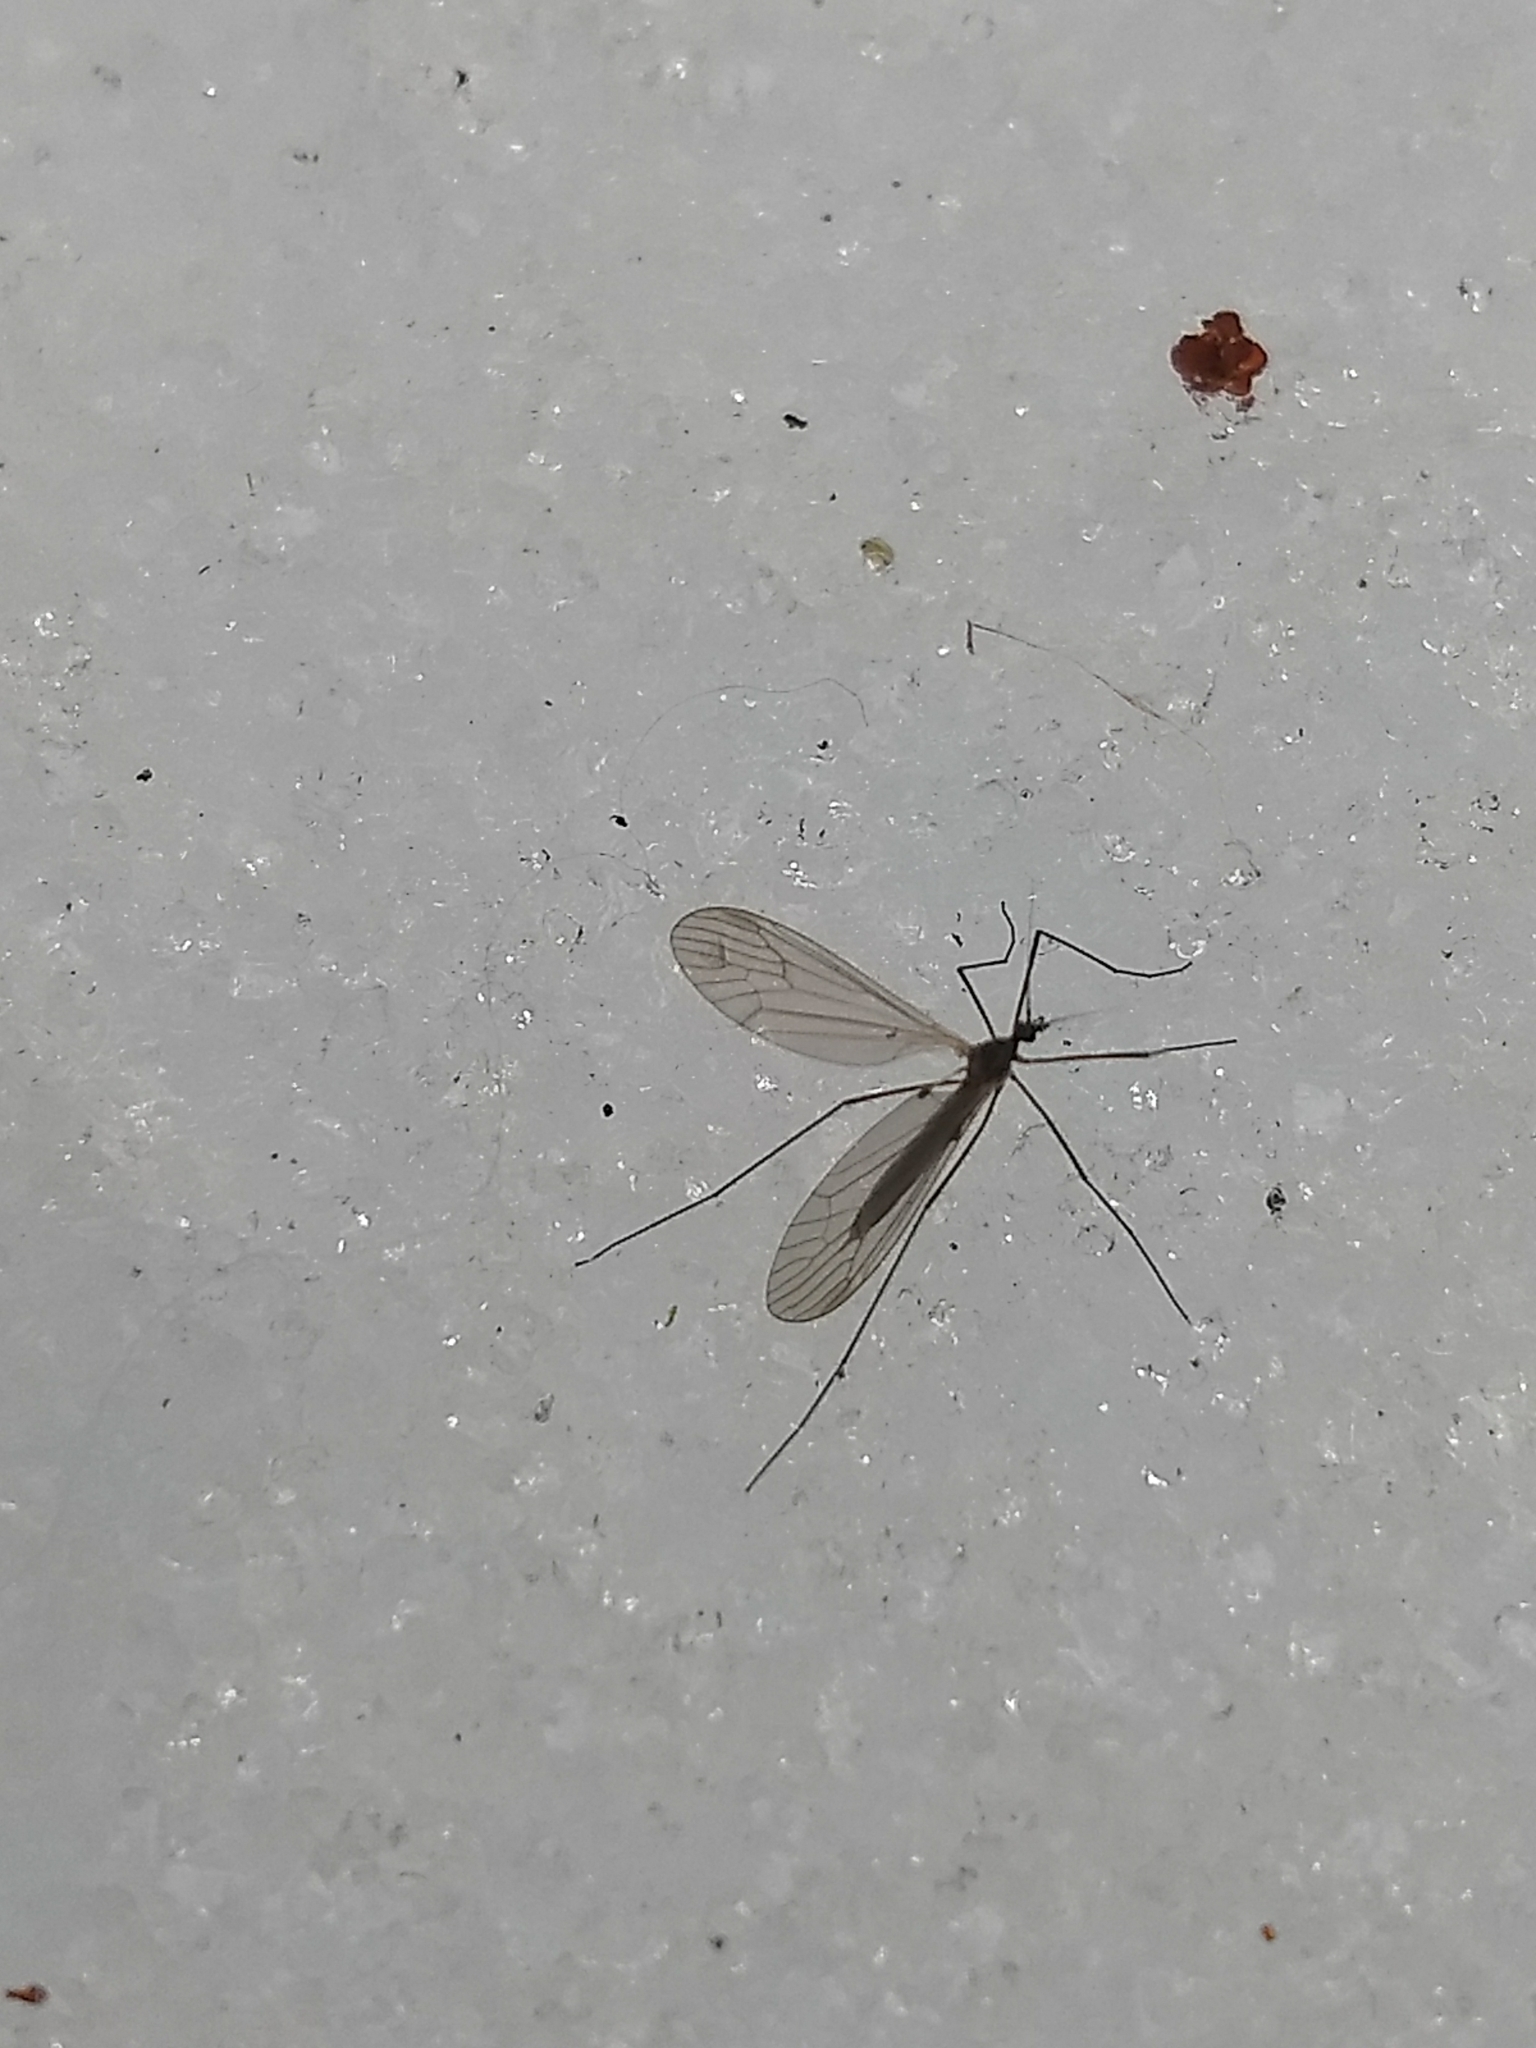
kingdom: Animalia
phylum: Arthropoda
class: Insecta
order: Diptera
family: Trichoceridae
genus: Trichocera
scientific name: Trichocera
